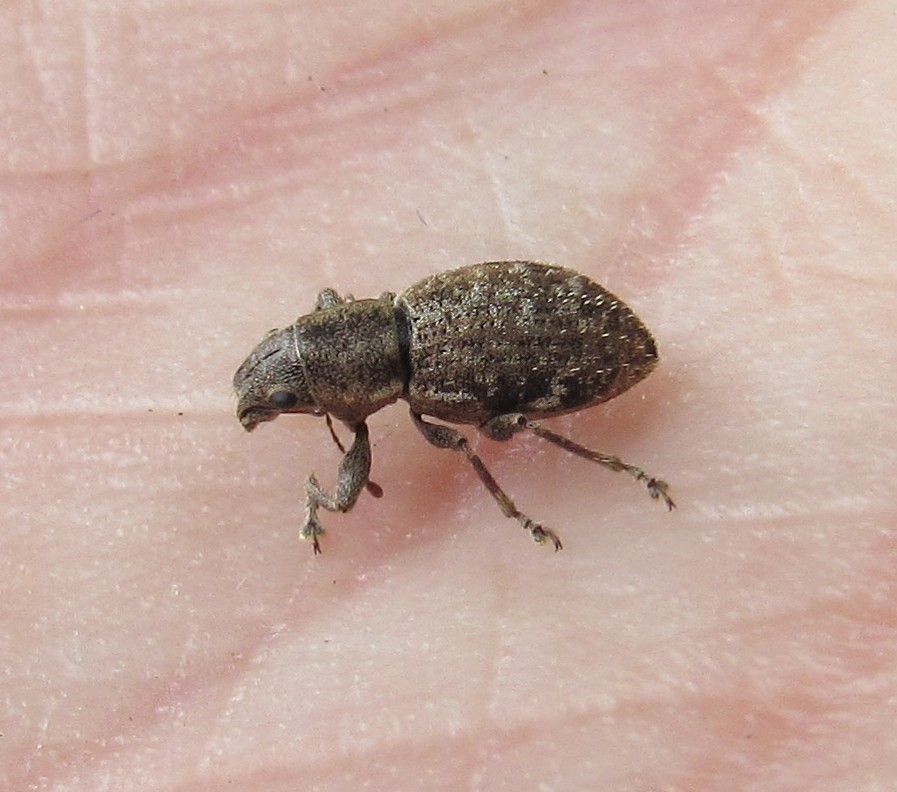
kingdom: Animalia
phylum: Arthropoda
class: Insecta
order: Coleoptera
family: Curculionidae
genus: Naupactus
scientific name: Naupactus cervinus
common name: Fuller rose beetle
